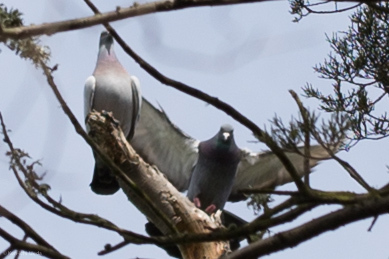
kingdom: Animalia
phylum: Chordata
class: Aves
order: Columbiformes
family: Columbidae
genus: Columba
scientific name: Columba livia
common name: Rock pigeon
